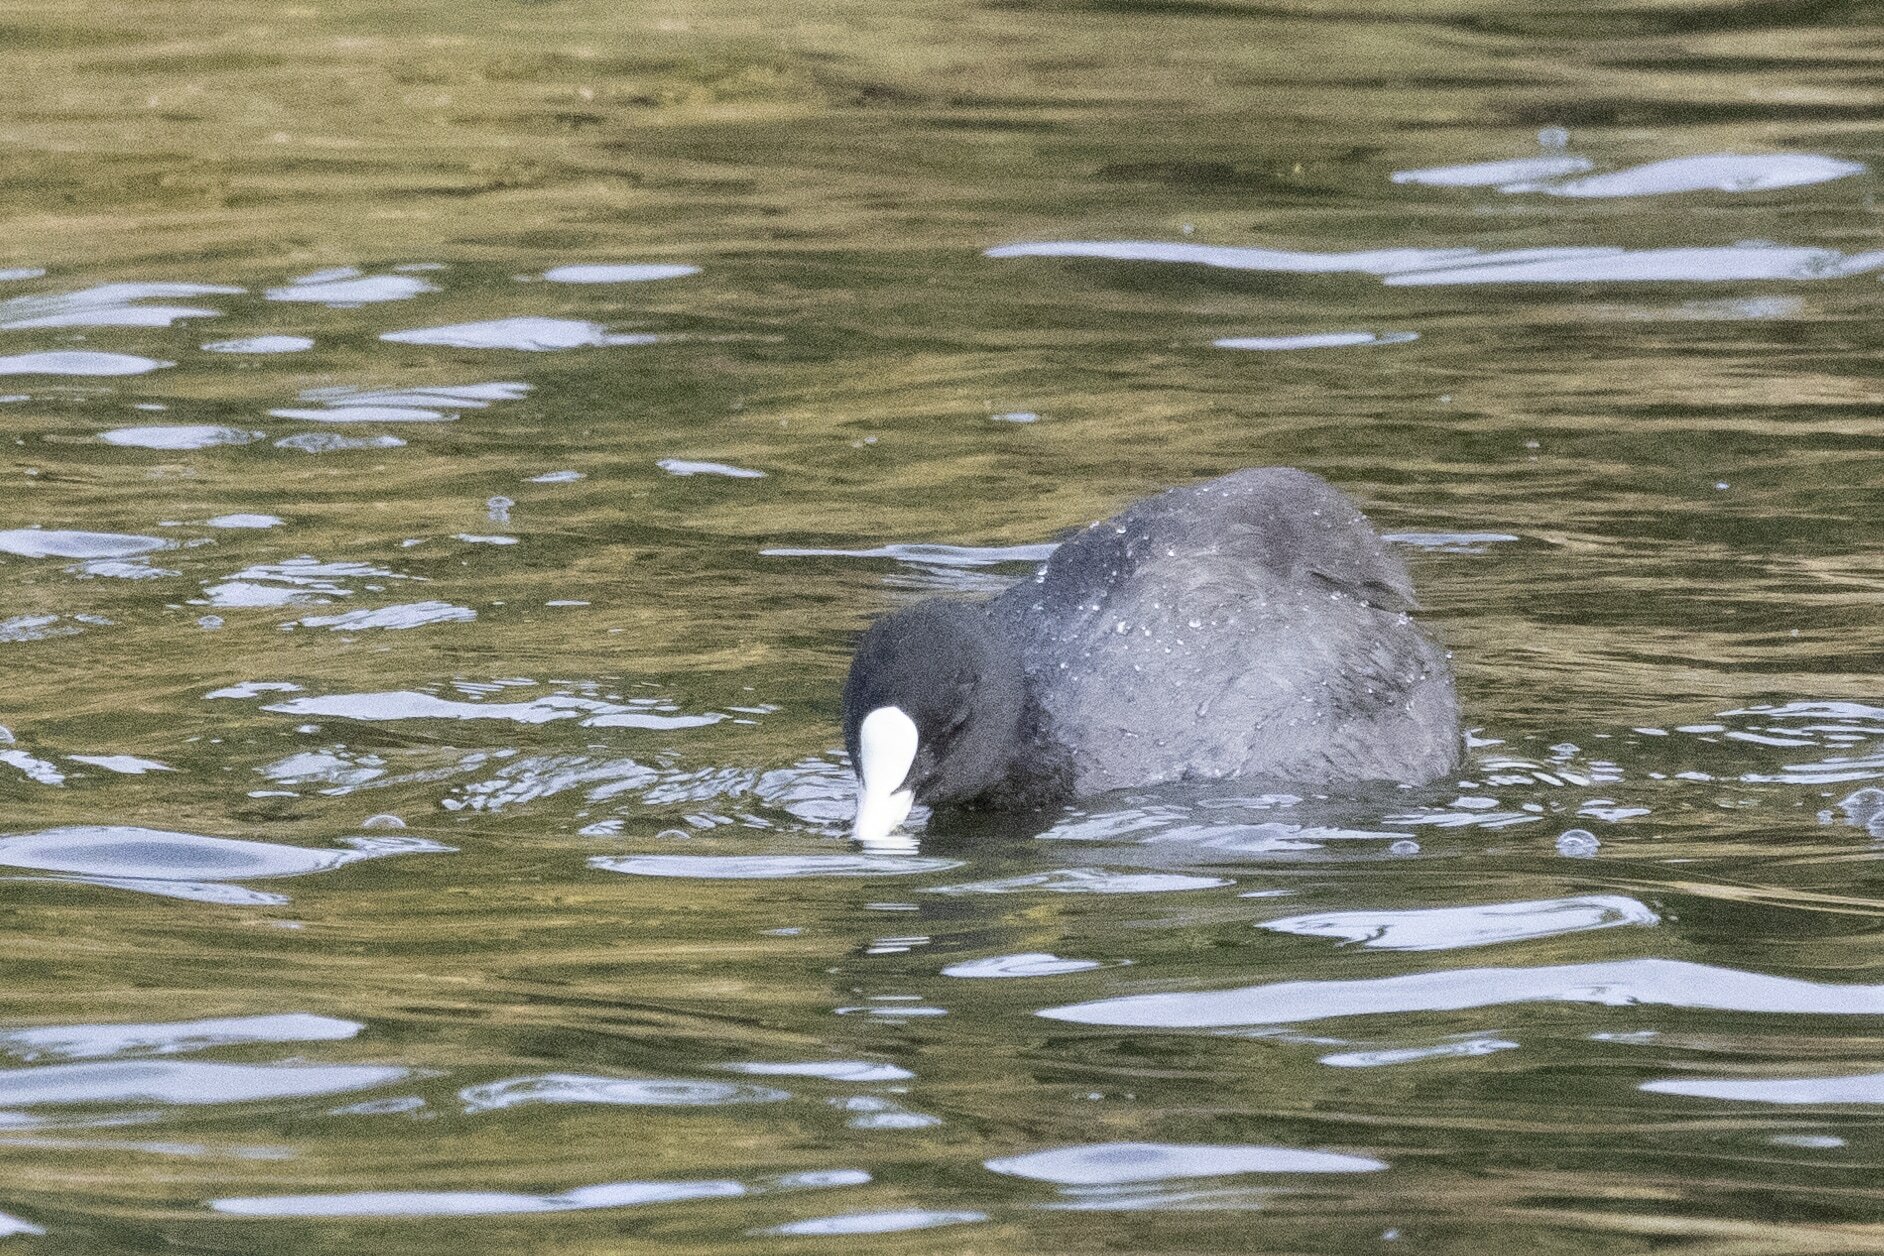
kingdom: Animalia
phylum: Chordata
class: Aves
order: Gruiformes
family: Rallidae
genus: Fulica
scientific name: Fulica atra
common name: Eurasian coot
